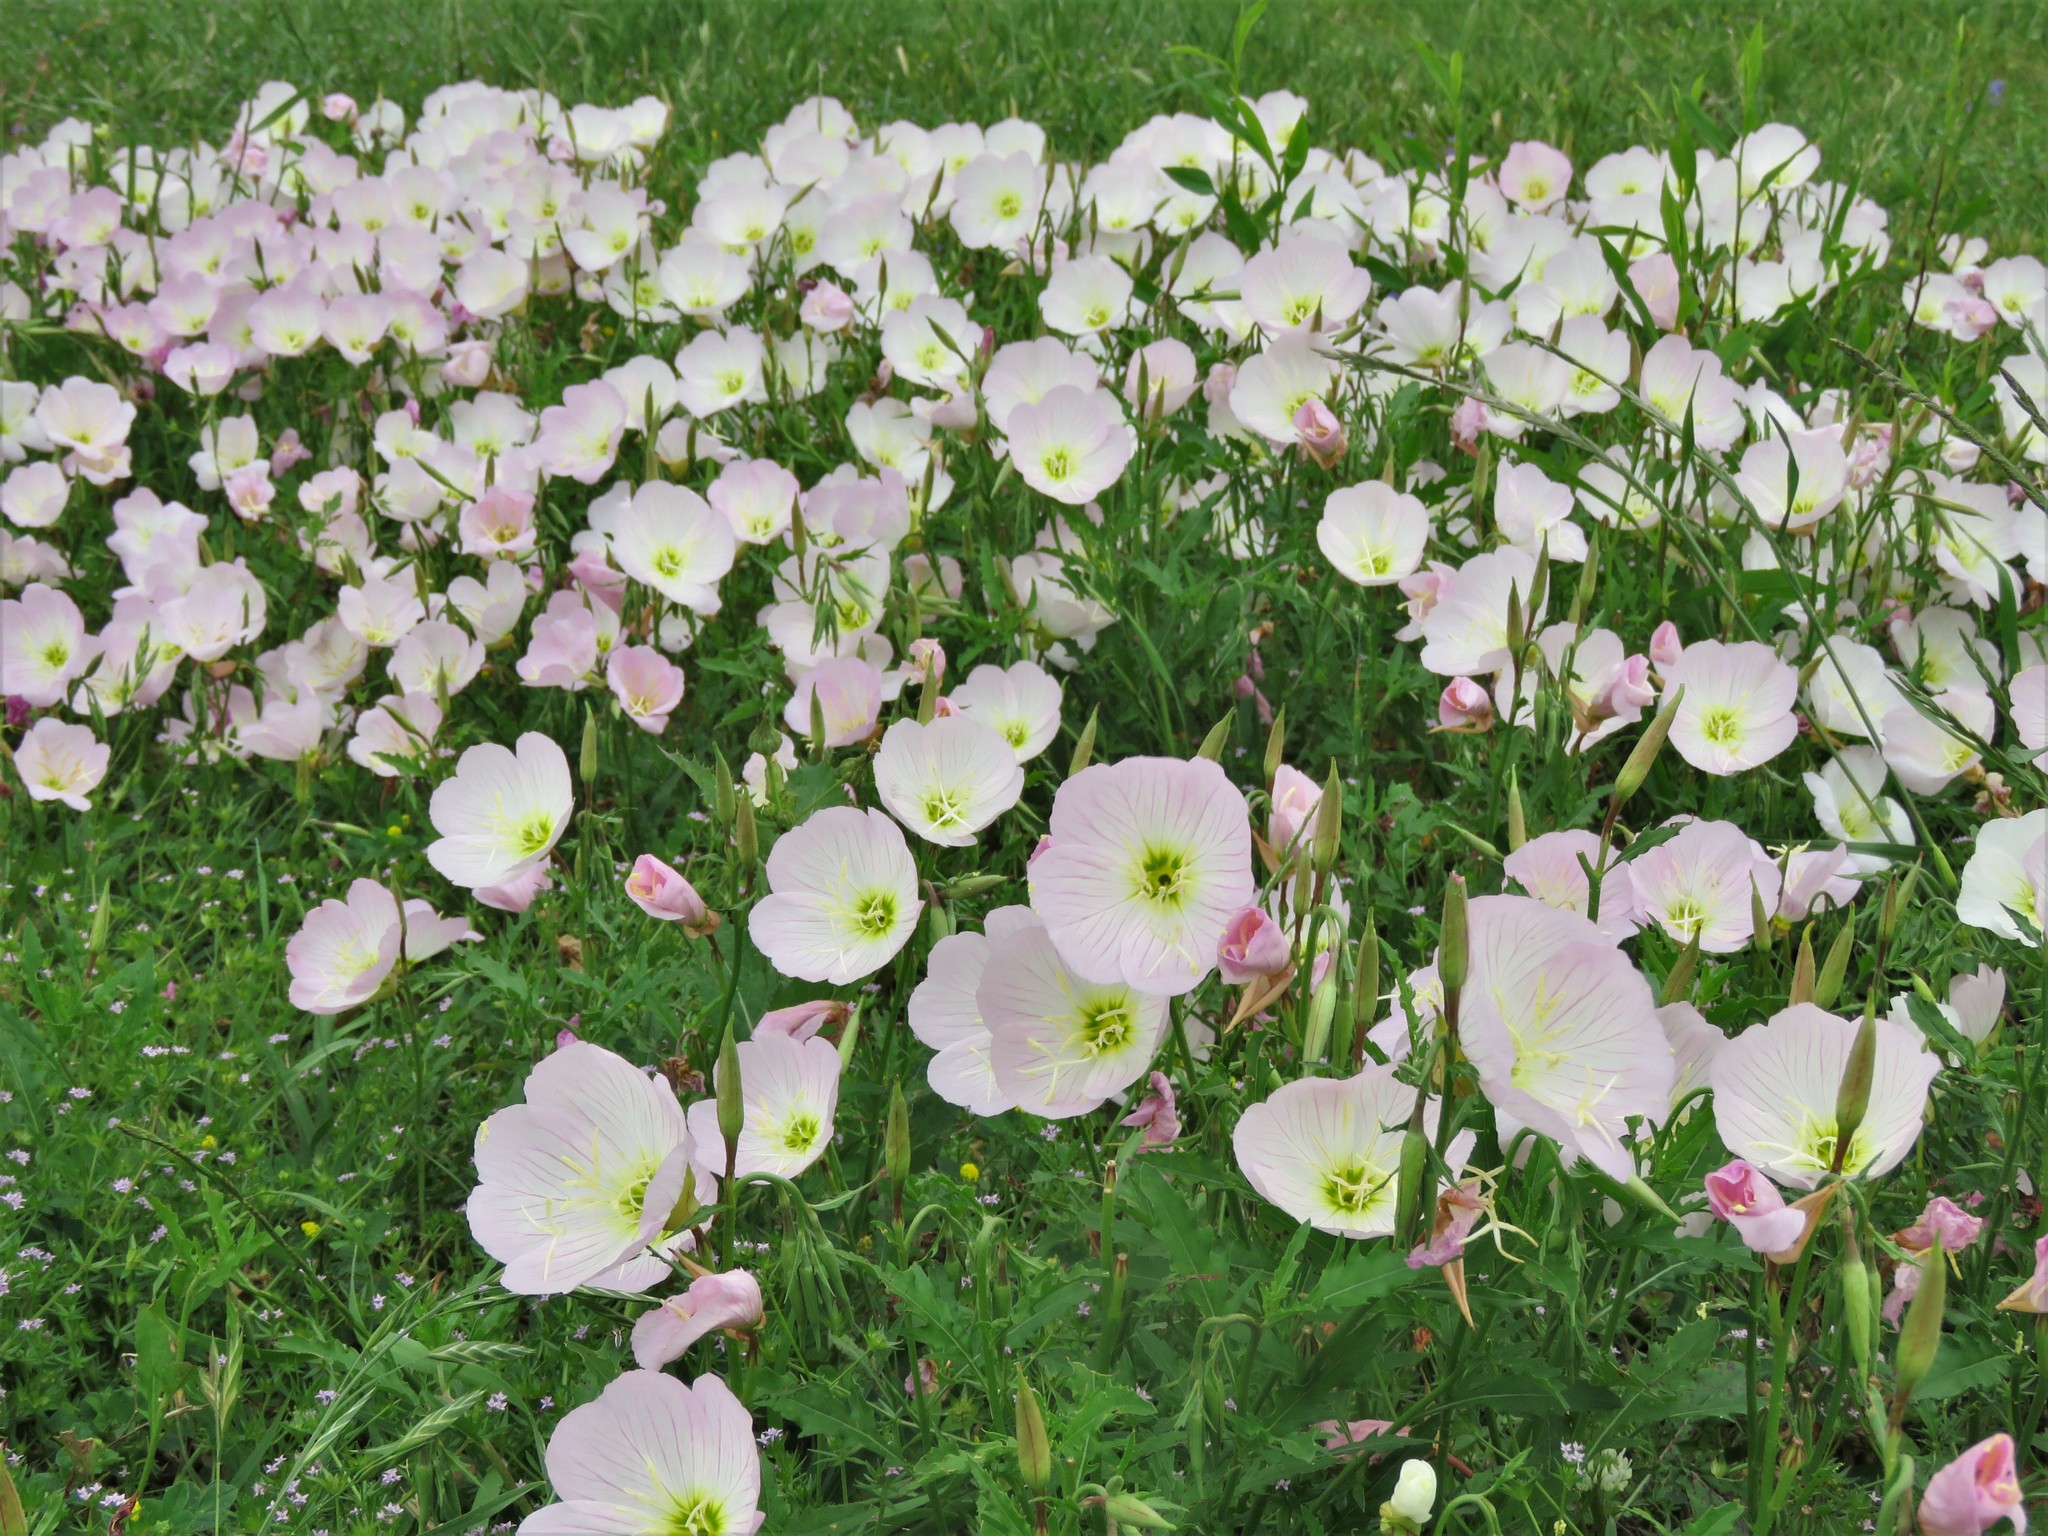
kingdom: Plantae
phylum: Tracheophyta
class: Magnoliopsida
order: Myrtales
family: Onagraceae
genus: Oenothera
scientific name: Oenothera speciosa
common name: White evening-primrose
